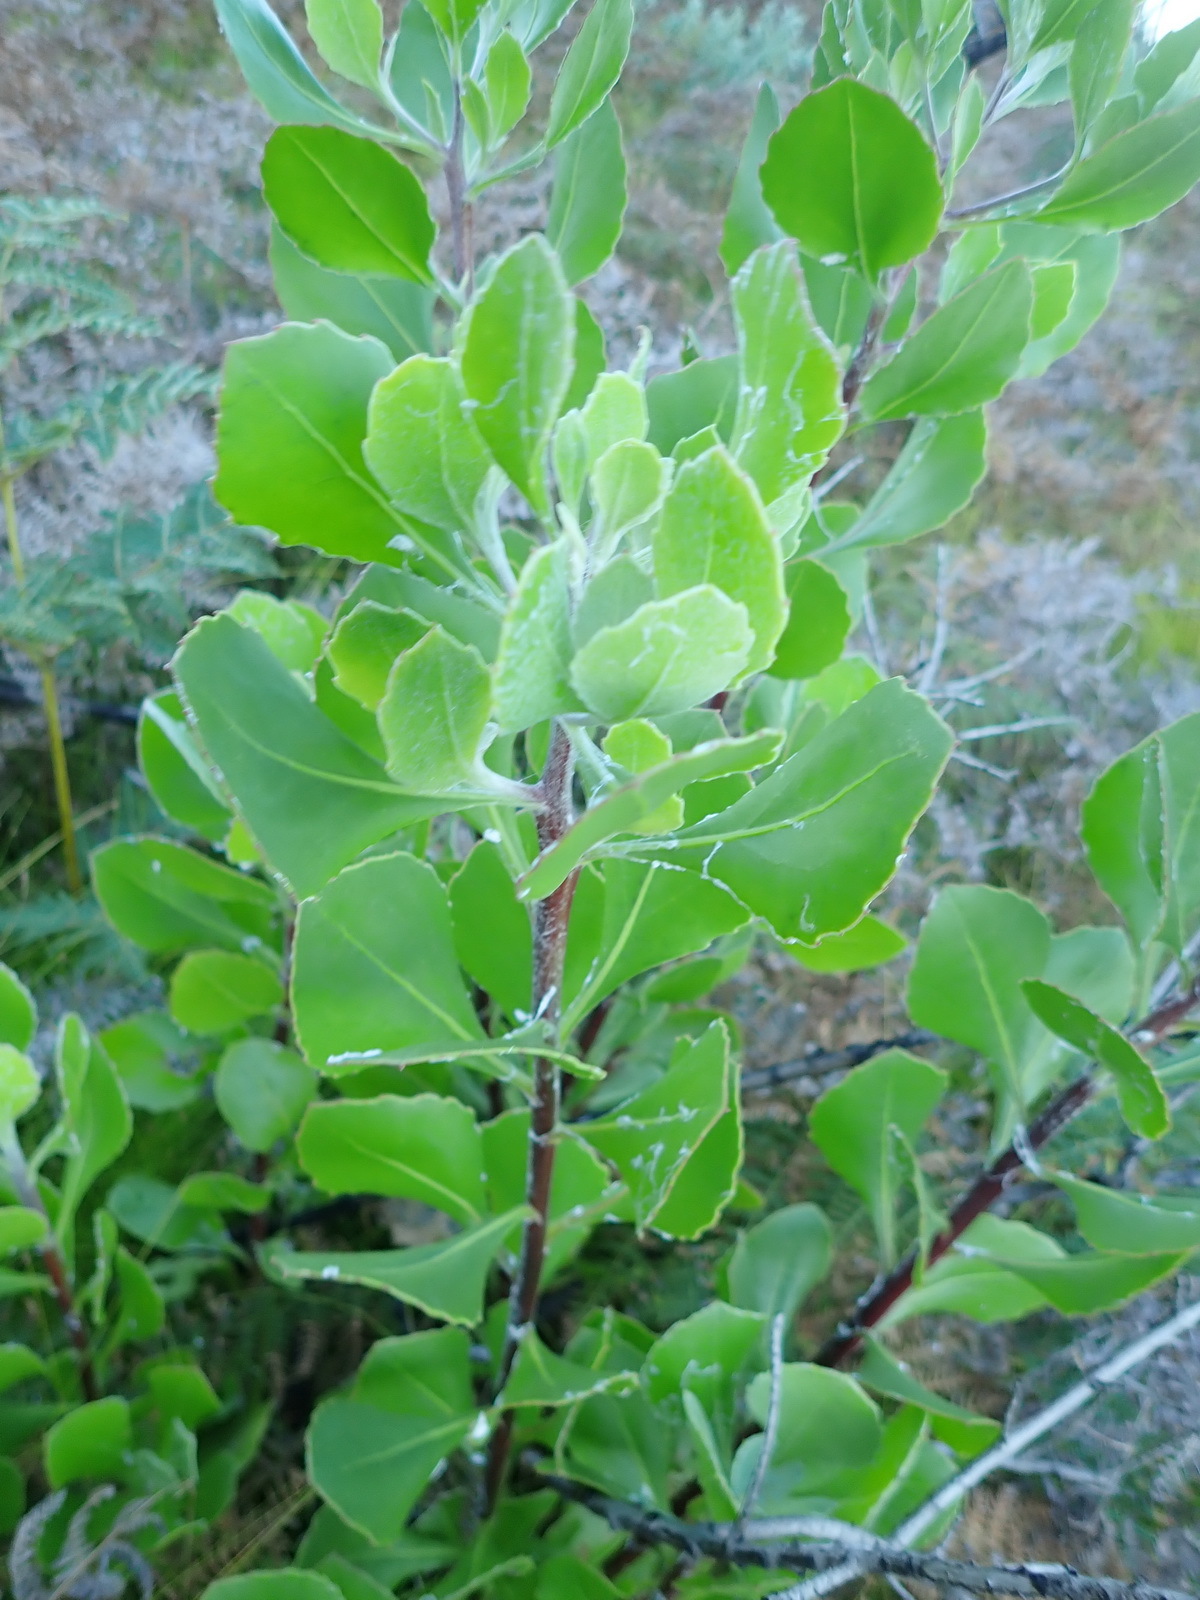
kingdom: Plantae
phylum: Tracheophyta
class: Magnoliopsida
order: Asterales
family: Asteraceae
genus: Osteospermum
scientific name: Osteospermum moniliferum
